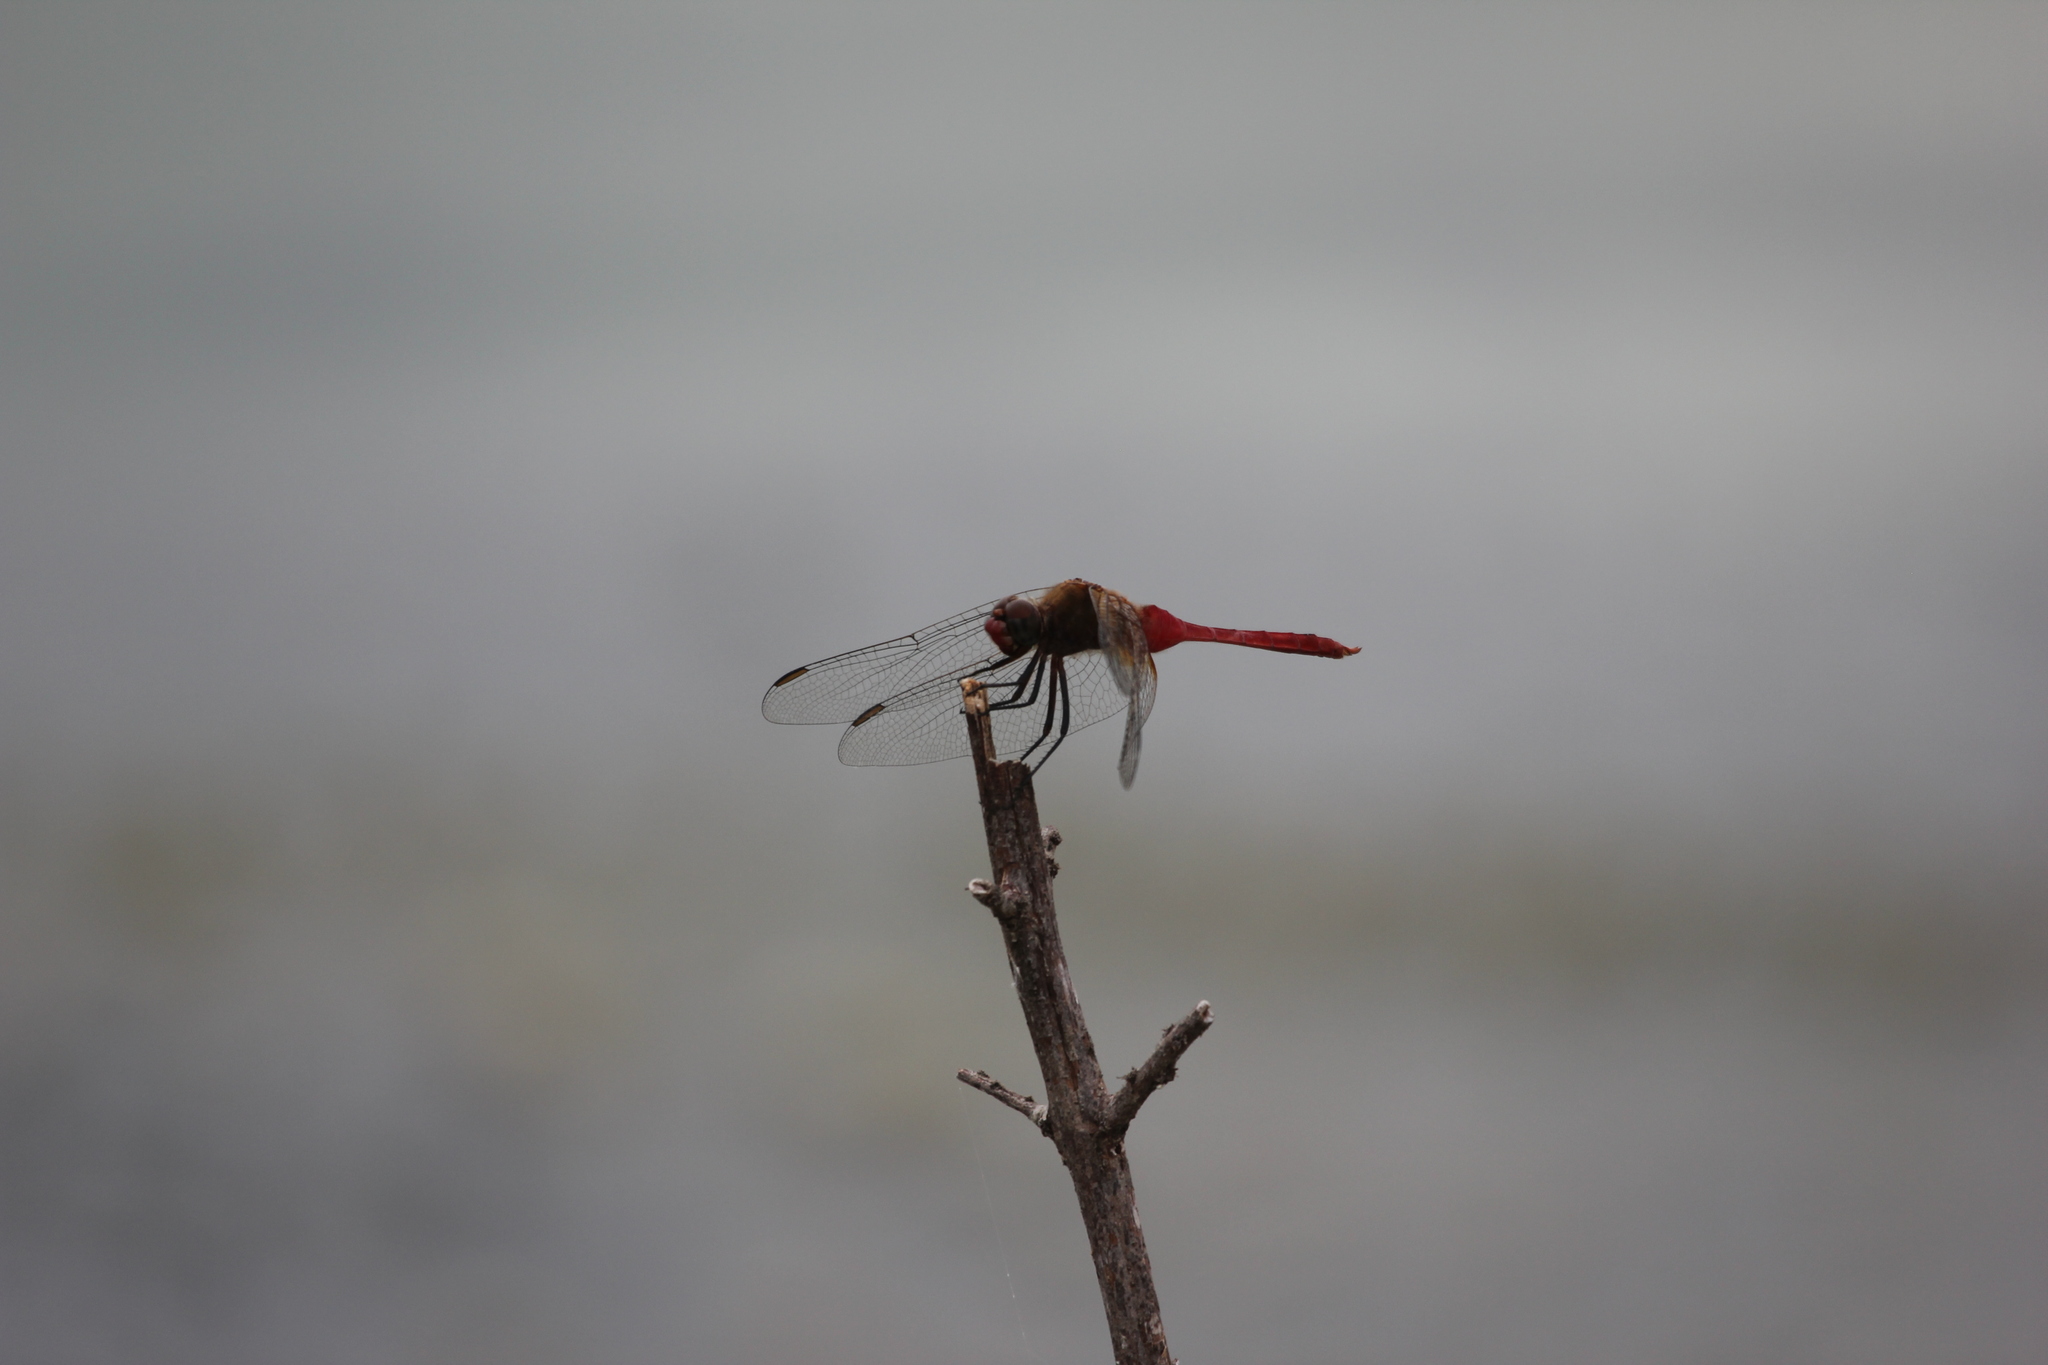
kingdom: Animalia
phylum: Arthropoda
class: Insecta
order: Odonata
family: Libellulidae
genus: Brachymesia
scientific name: Brachymesia furcata
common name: Red-taled pennant
